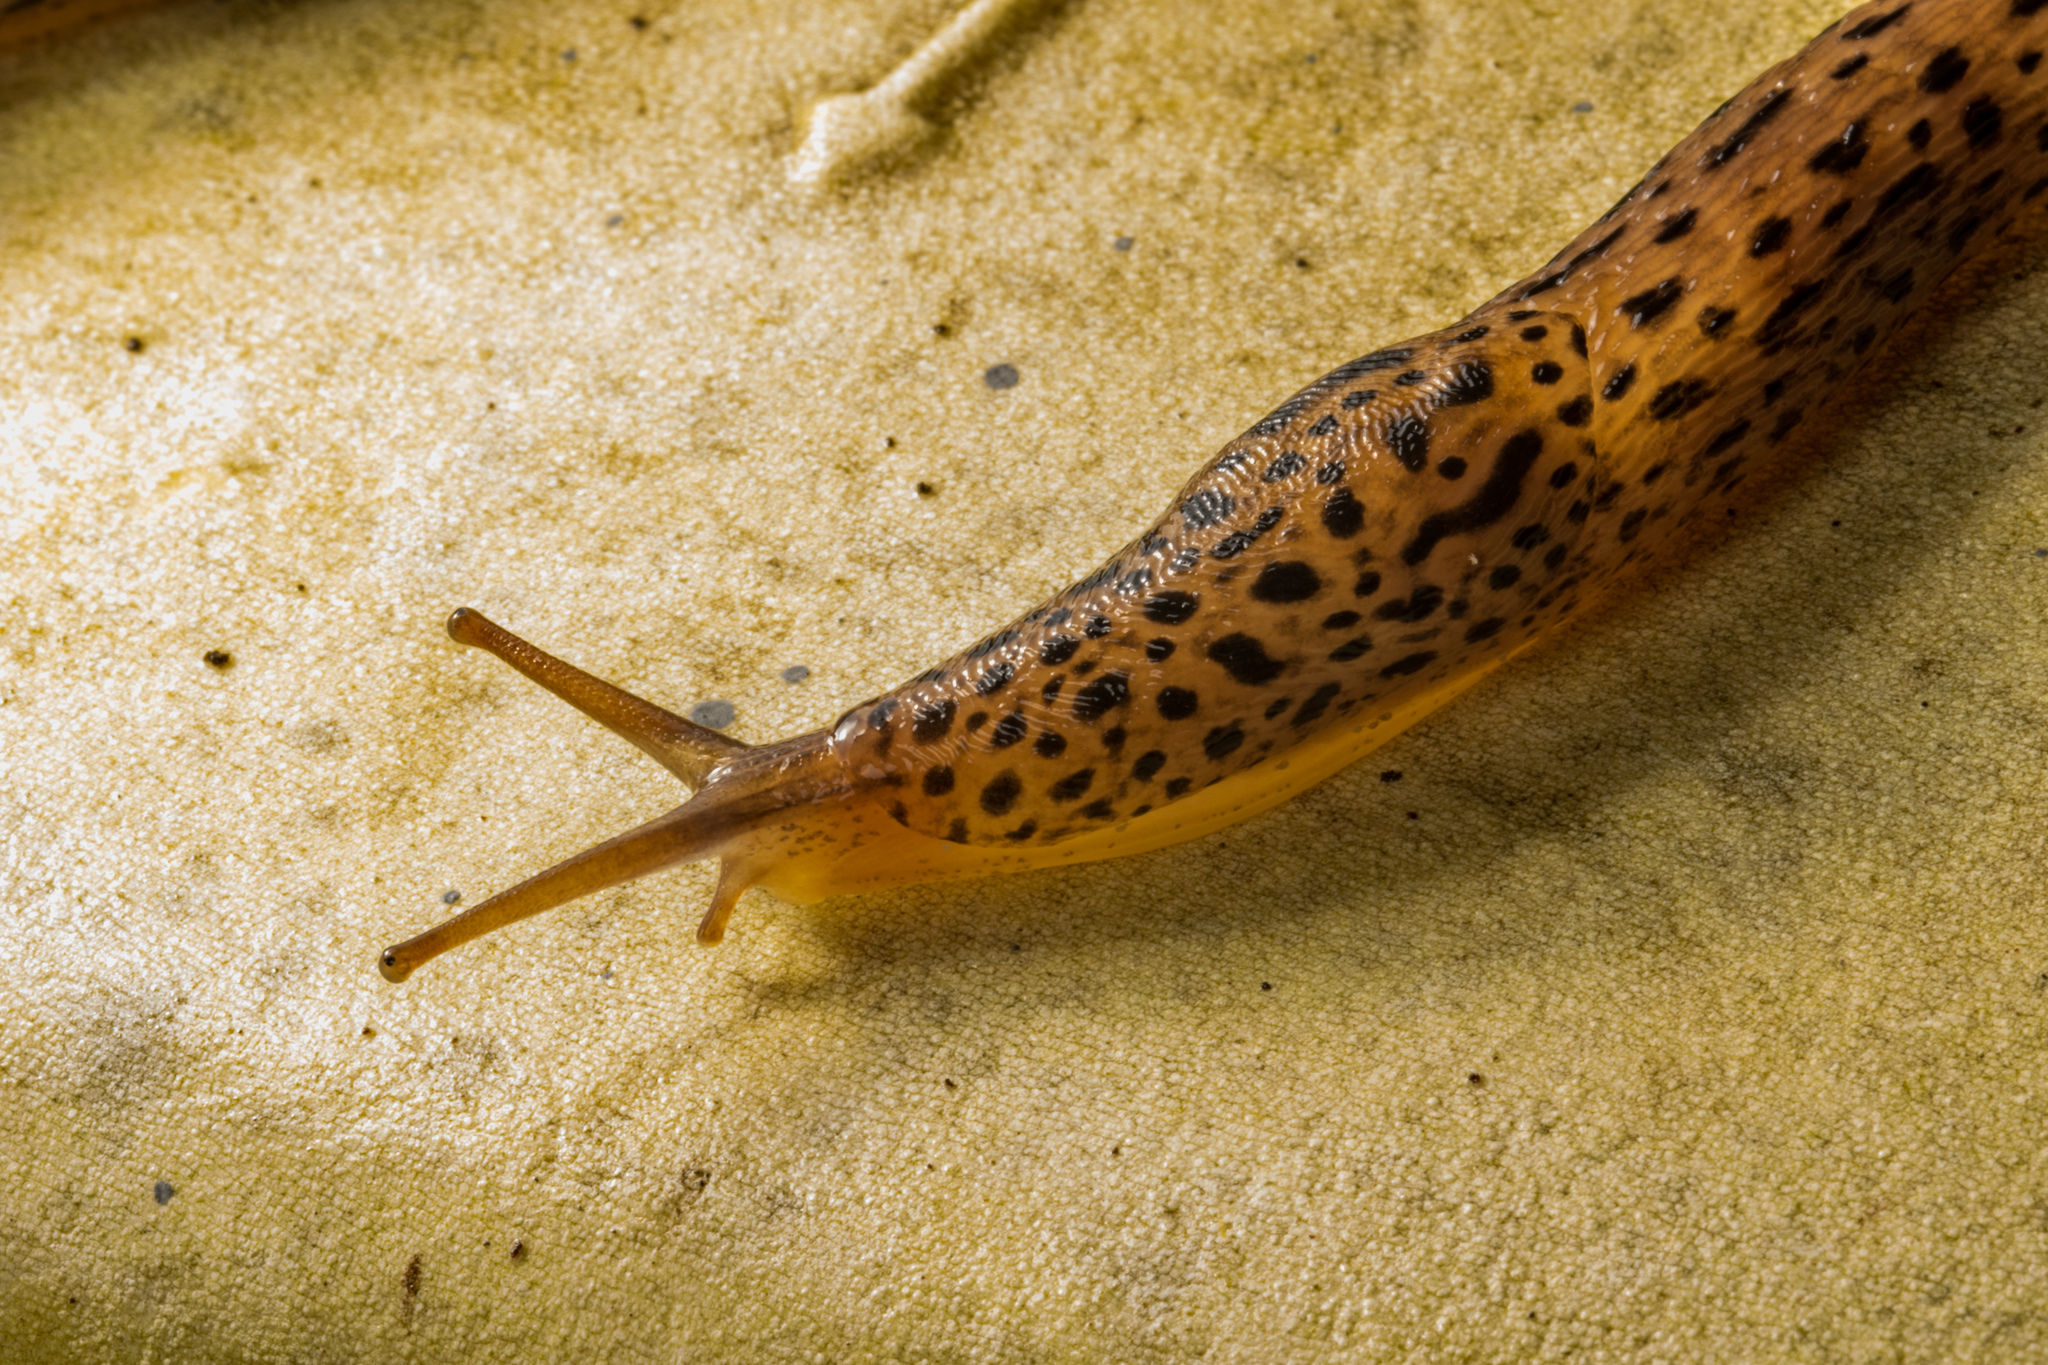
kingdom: Animalia
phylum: Mollusca
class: Gastropoda
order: Stylommatophora
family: Limacidae
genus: Limax
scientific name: Limax maximus
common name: Great grey slug
